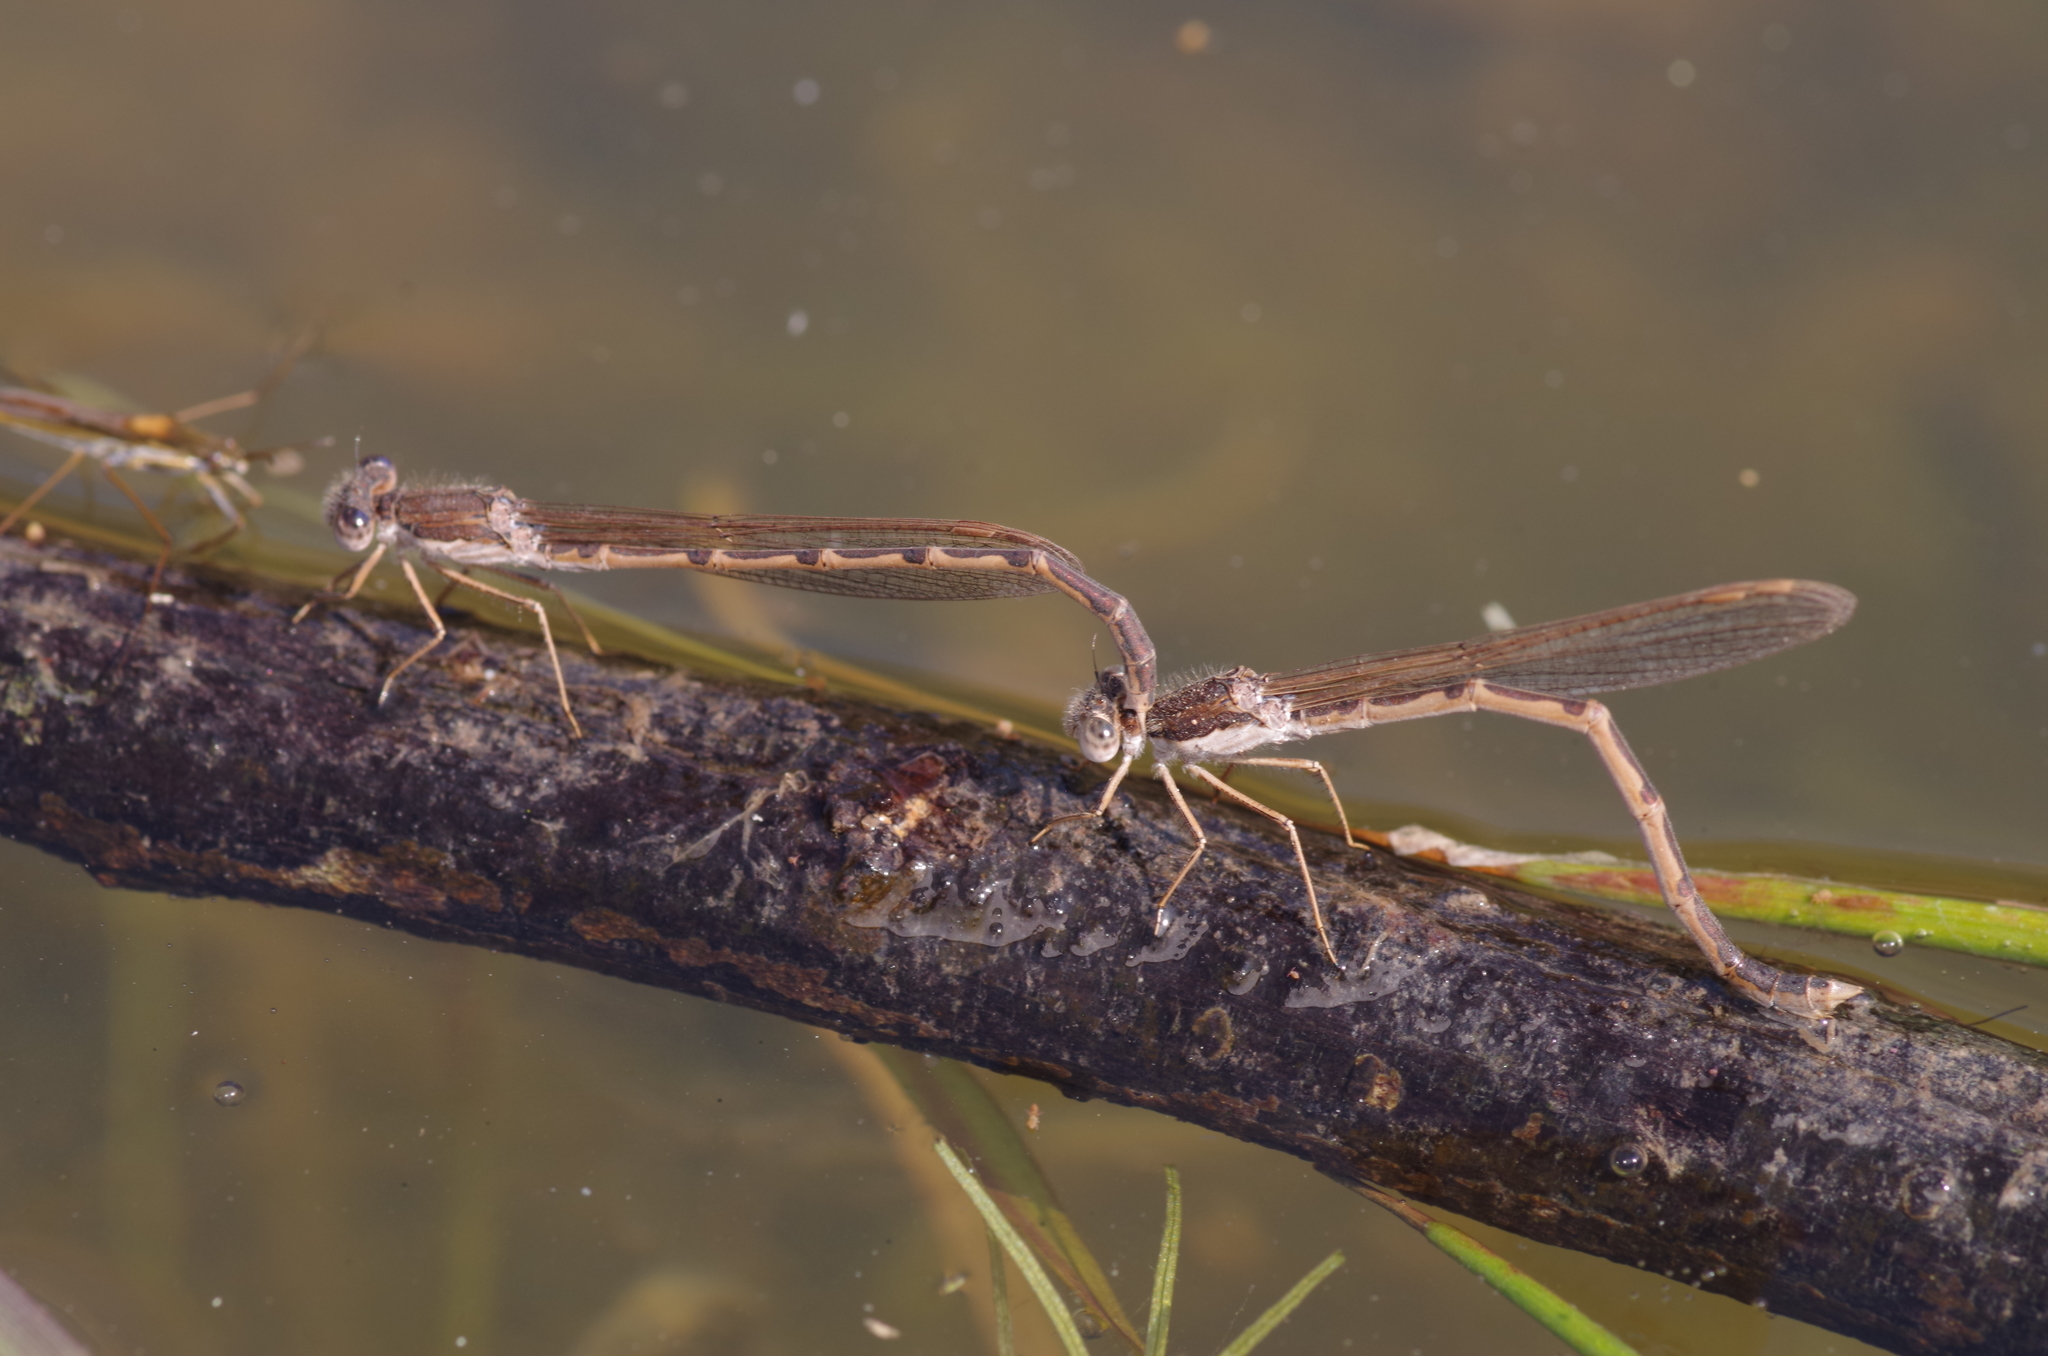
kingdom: Animalia
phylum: Arthropoda
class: Insecta
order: Odonata
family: Lestidae
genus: Sympecma
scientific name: Sympecma fusca
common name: Common winter damsel
